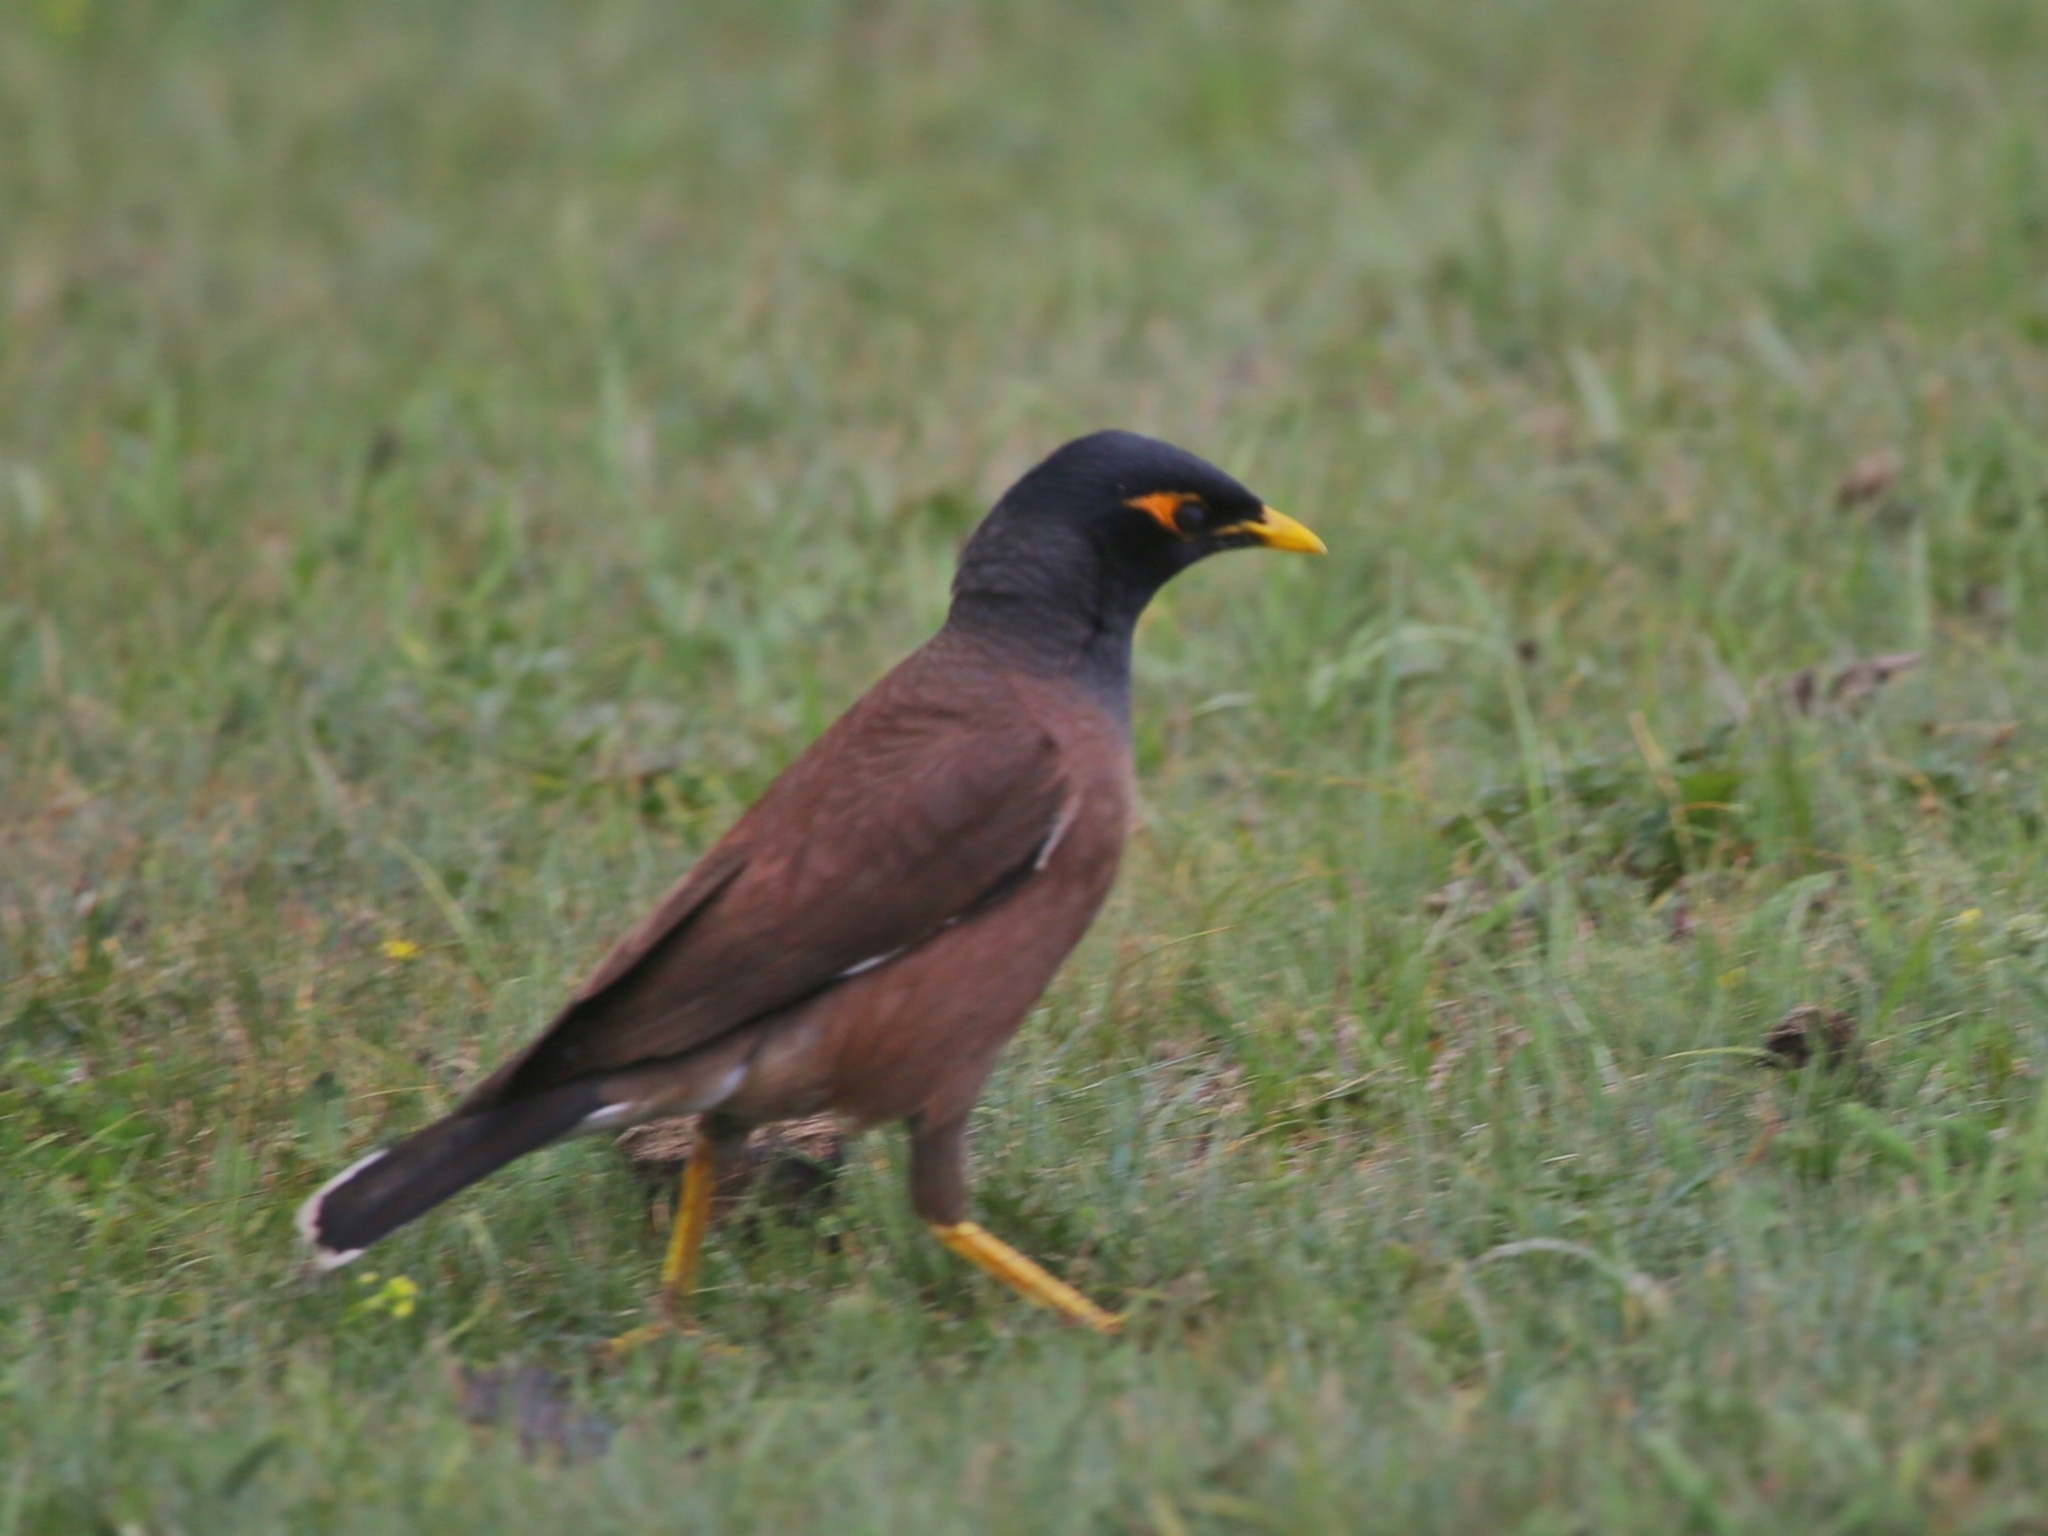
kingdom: Animalia
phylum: Chordata
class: Aves
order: Passeriformes
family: Sturnidae
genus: Acridotheres
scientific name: Acridotheres tristis
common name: Common myna
